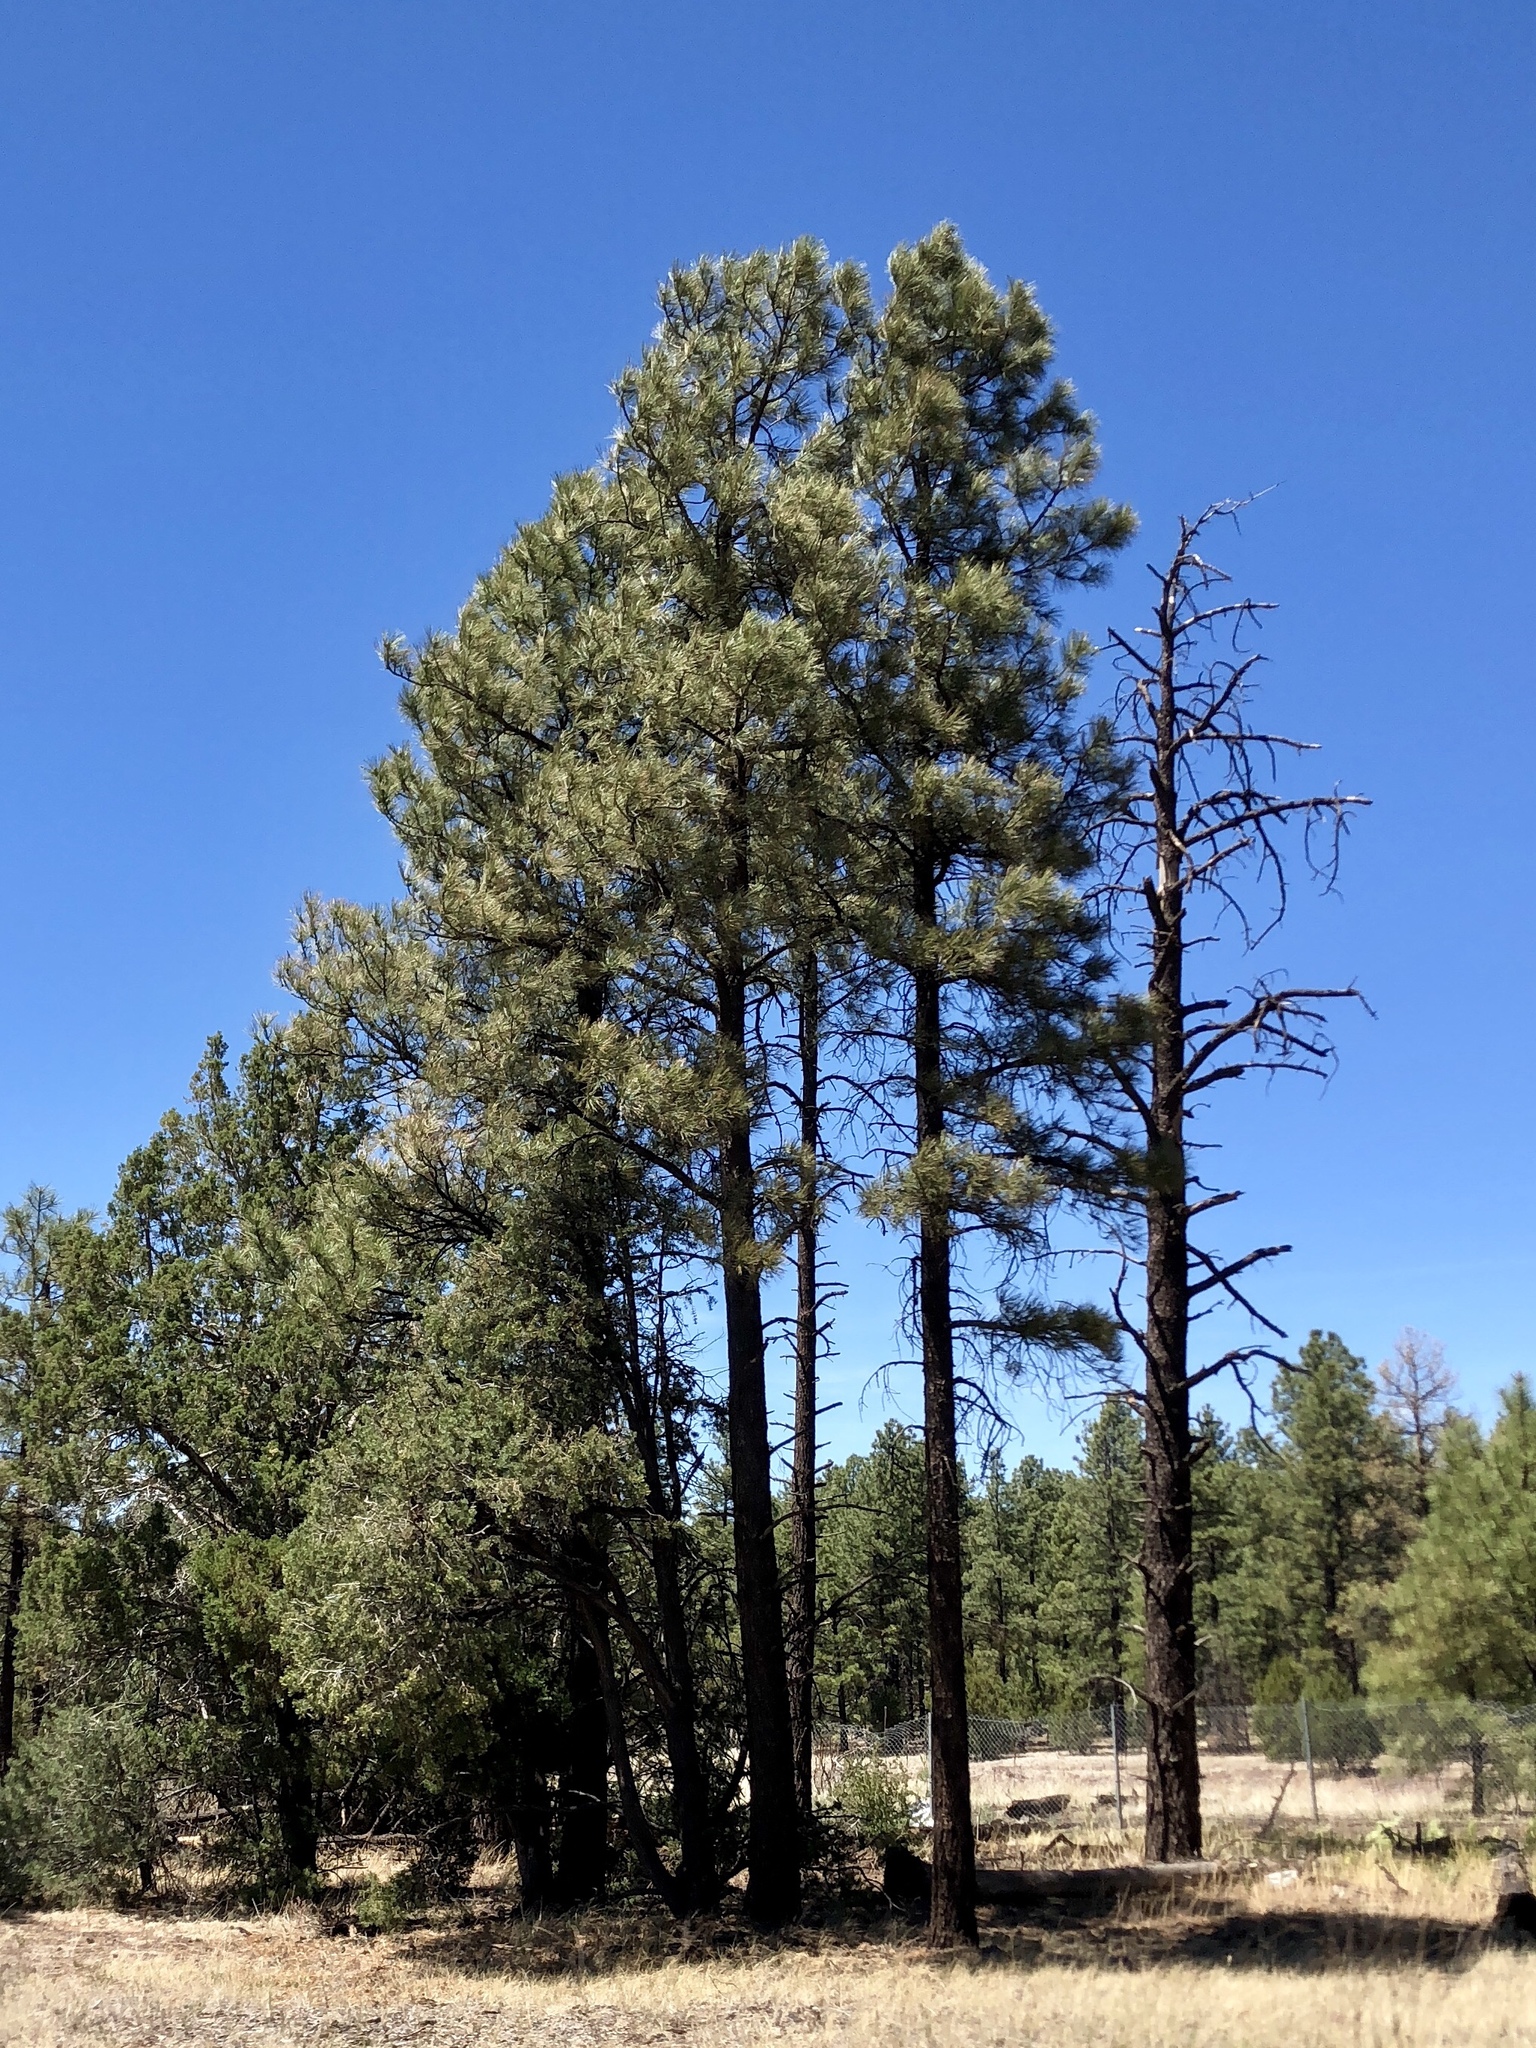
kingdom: Plantae
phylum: Tracheophyta
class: Pinopsida
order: Pinales
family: Pinaceae
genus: Pinus
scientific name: Pinus ponderosa
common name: Western yellow-pine
